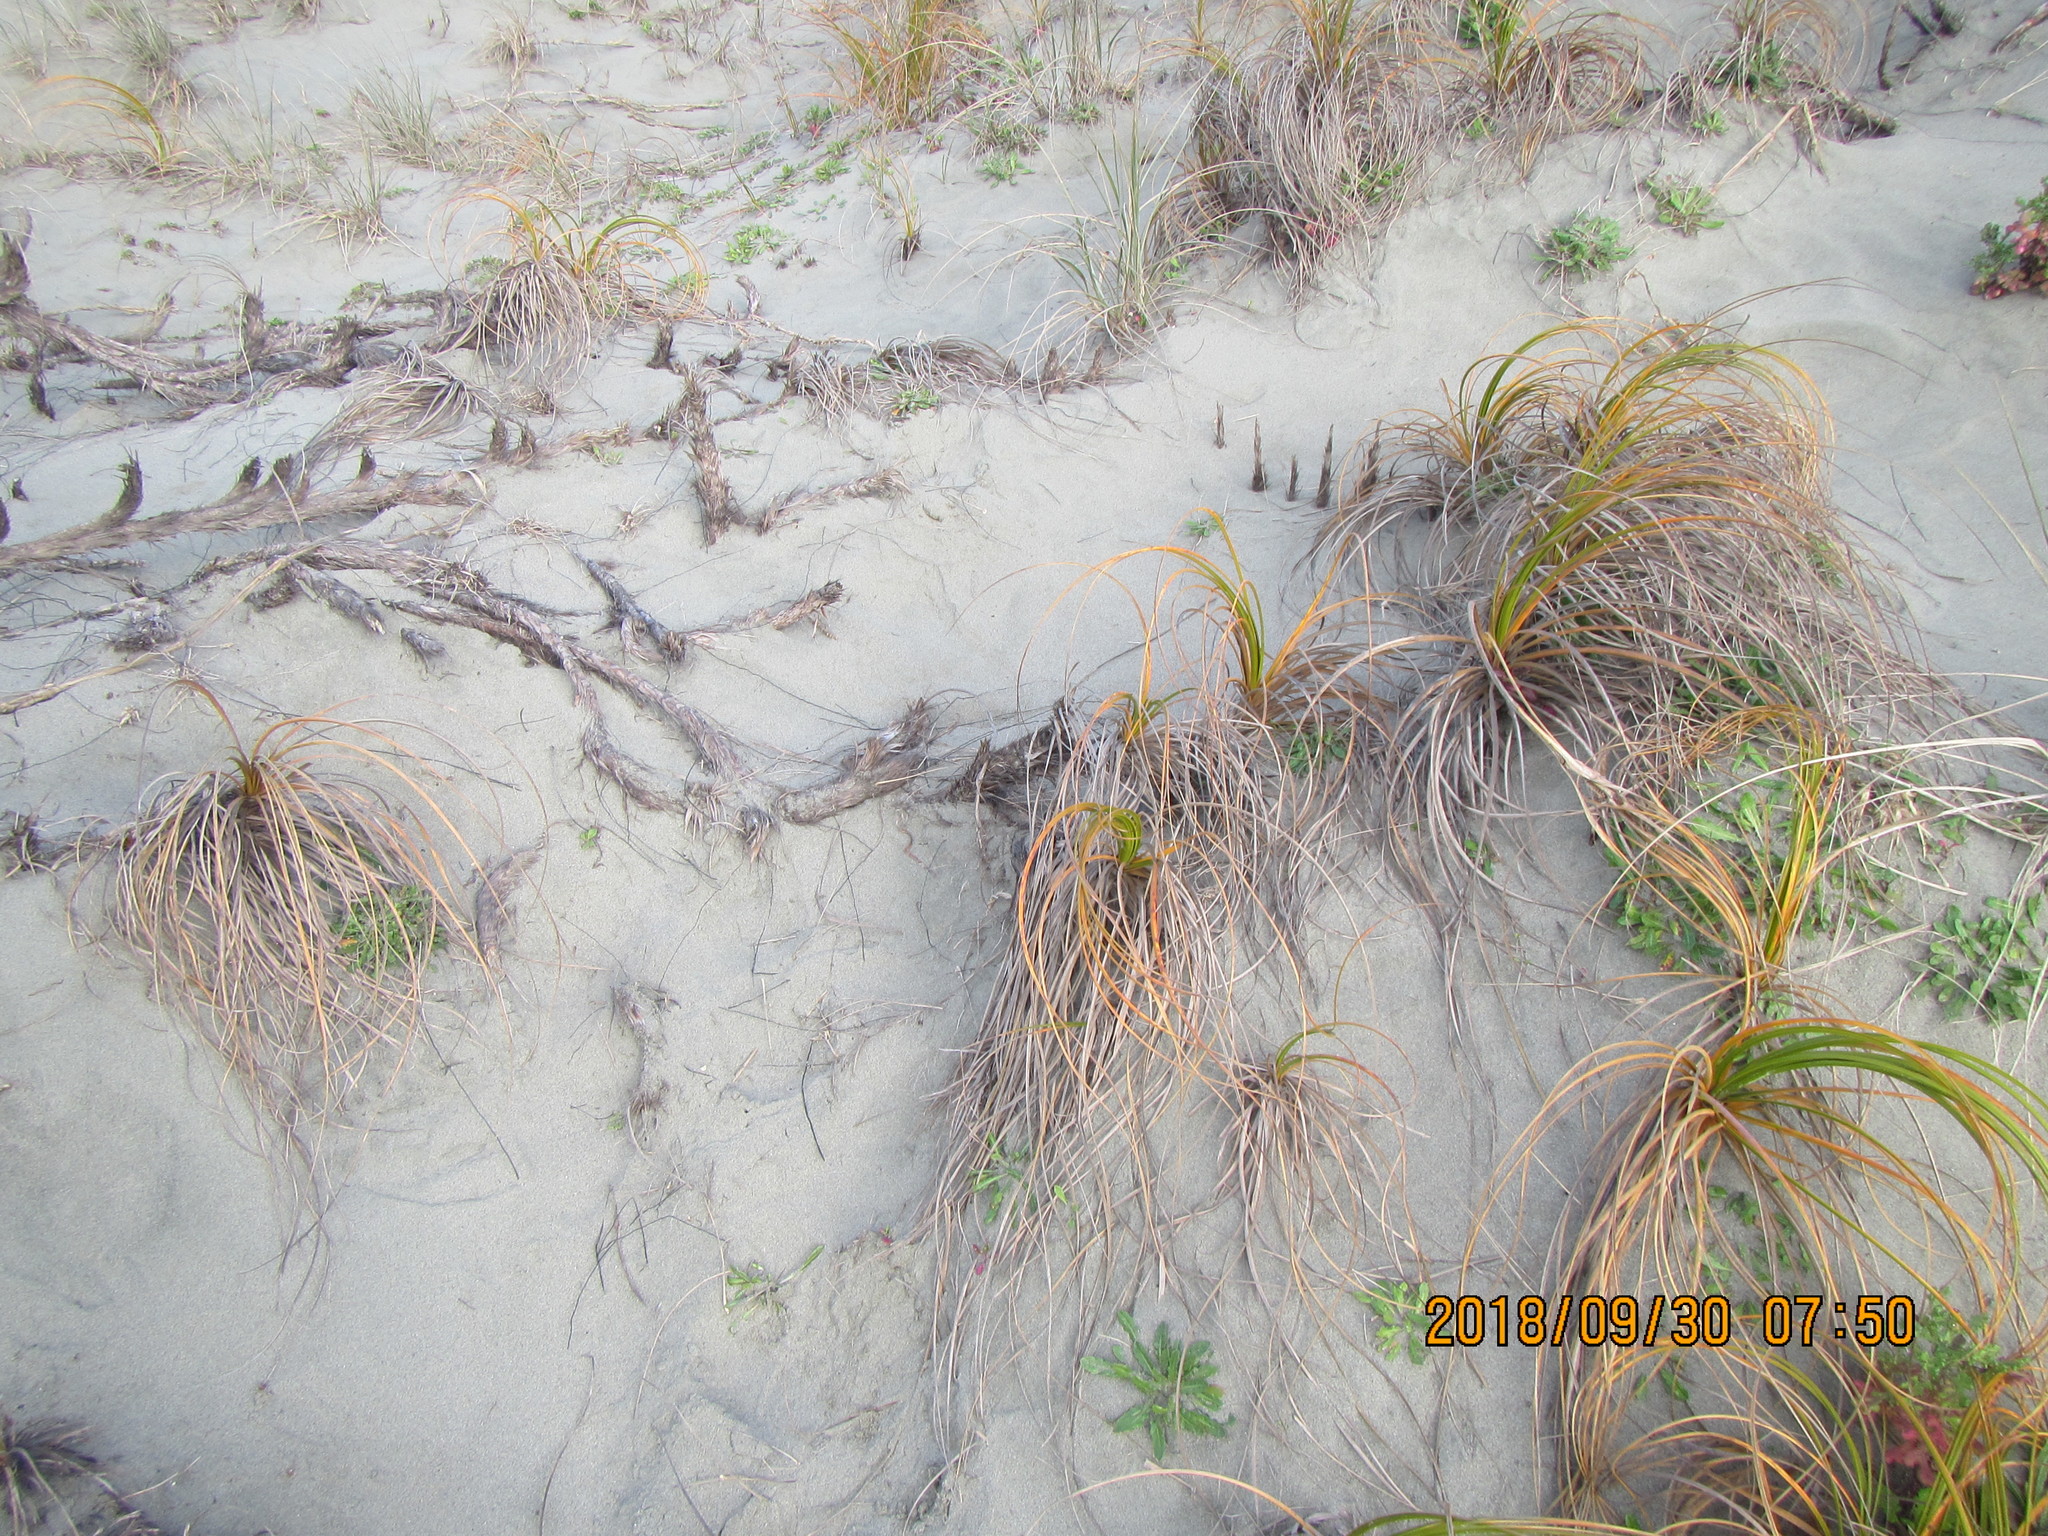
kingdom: Plantae
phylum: Tracheophyta
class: Liliopsida
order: Poales
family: Cyperaceae
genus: Ficinia
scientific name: Ficinia spiralis
